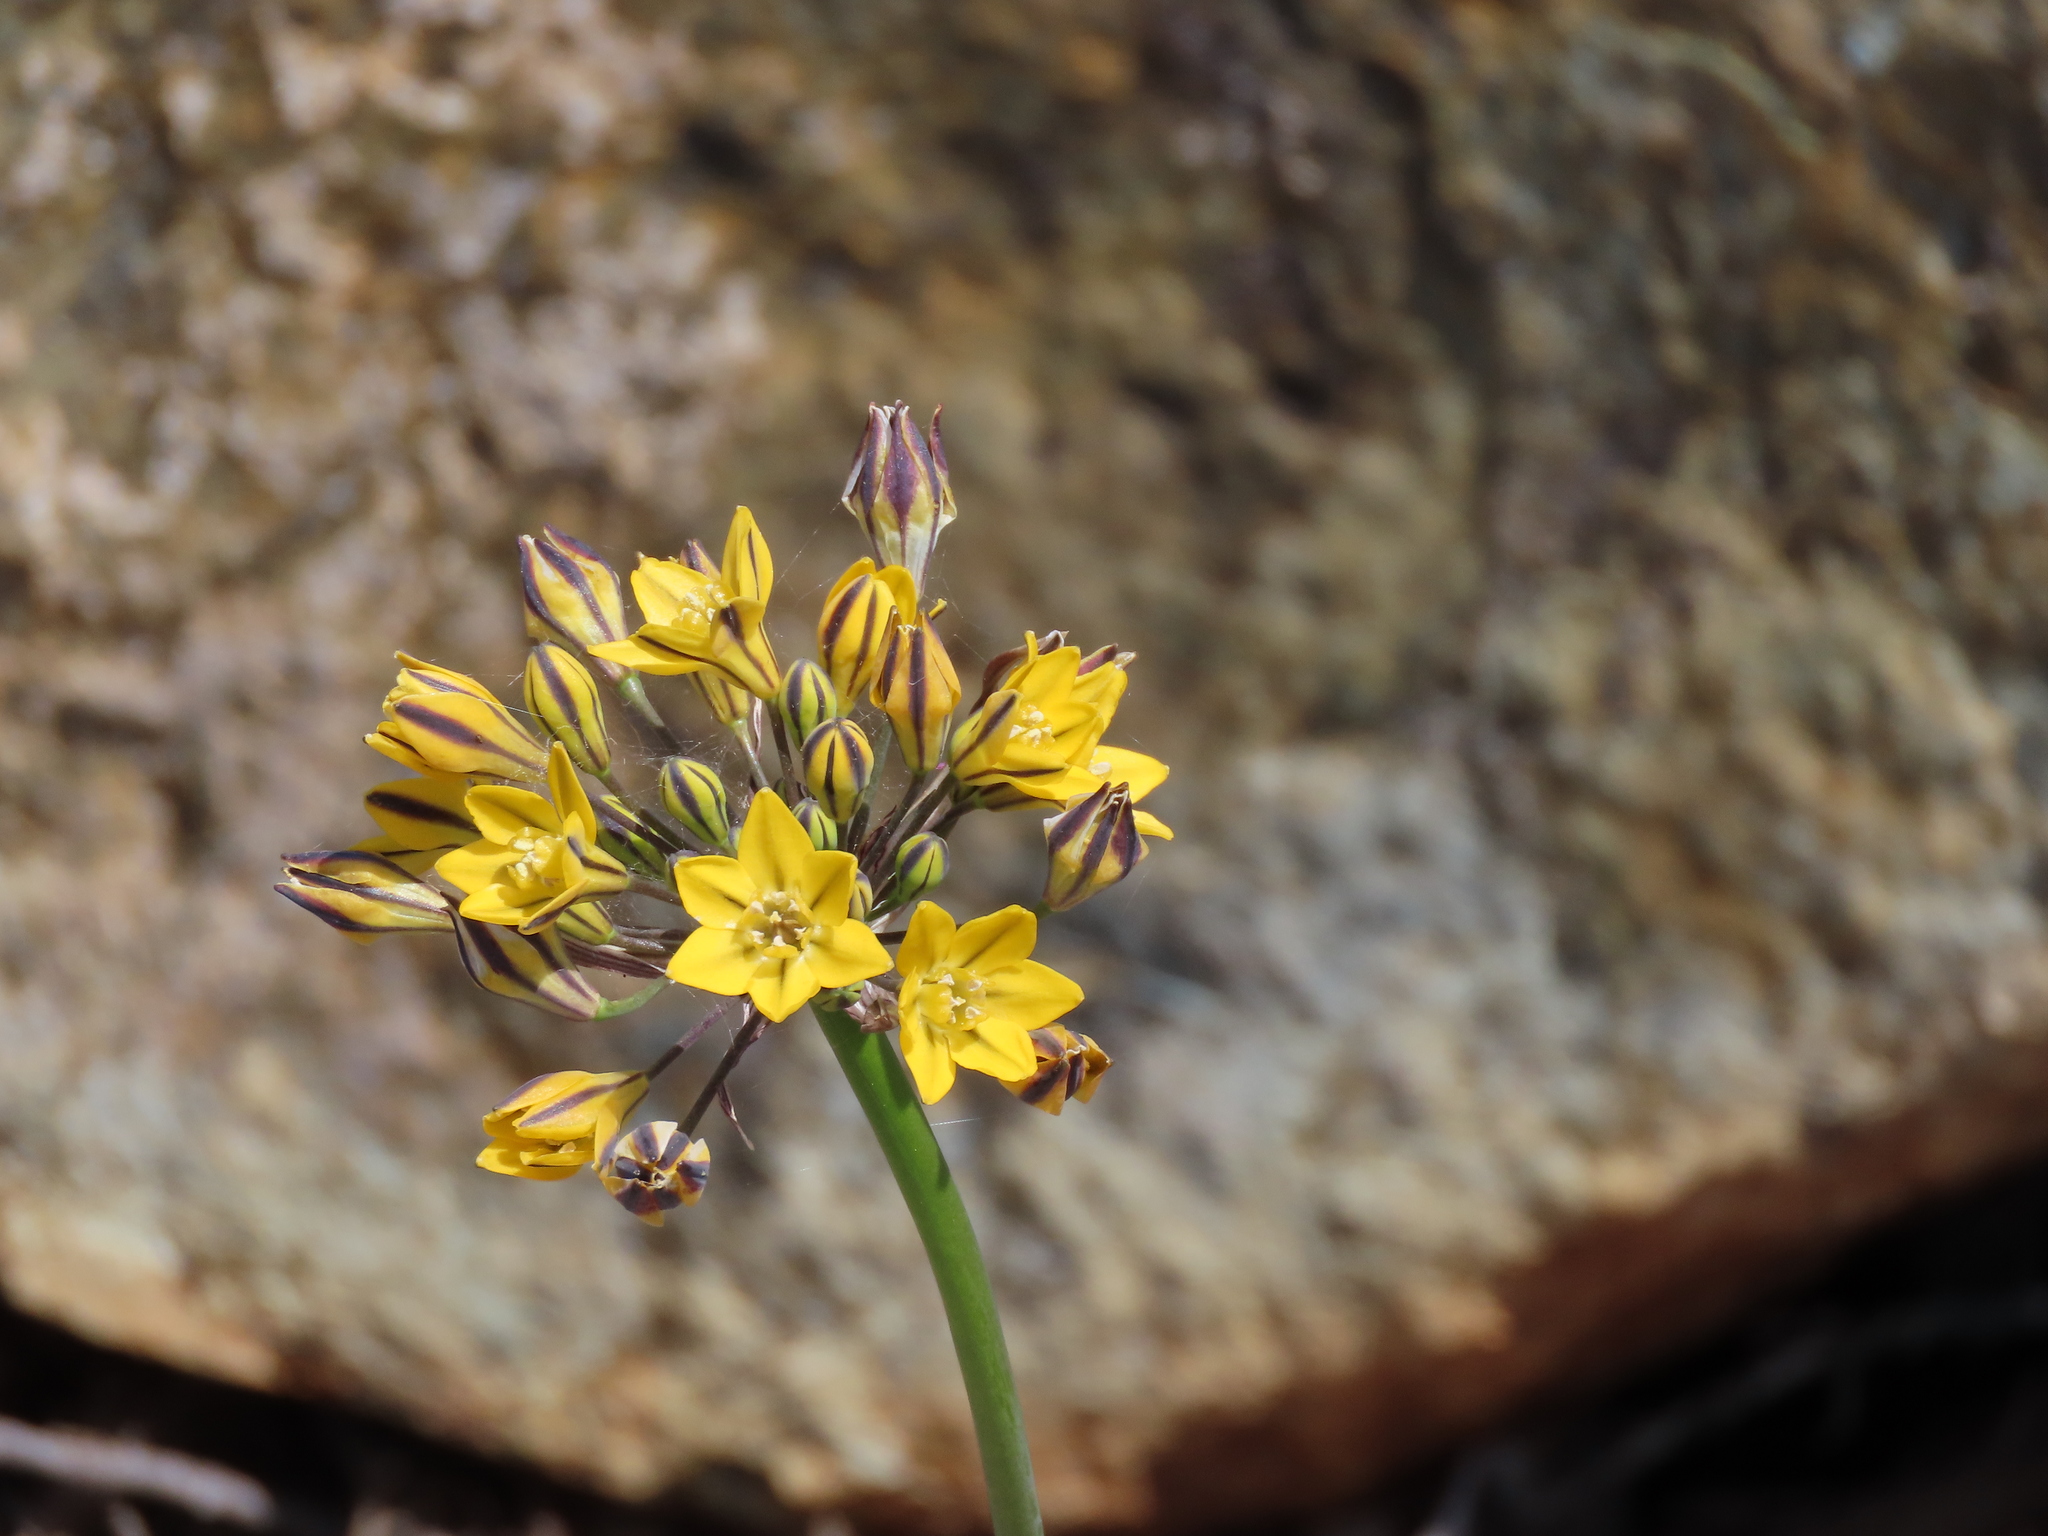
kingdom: Plantae
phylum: Tracheophyta
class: Liliopsida
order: Asparagales
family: Asparagaceae
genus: Triteleia
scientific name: Triteleia lugens
